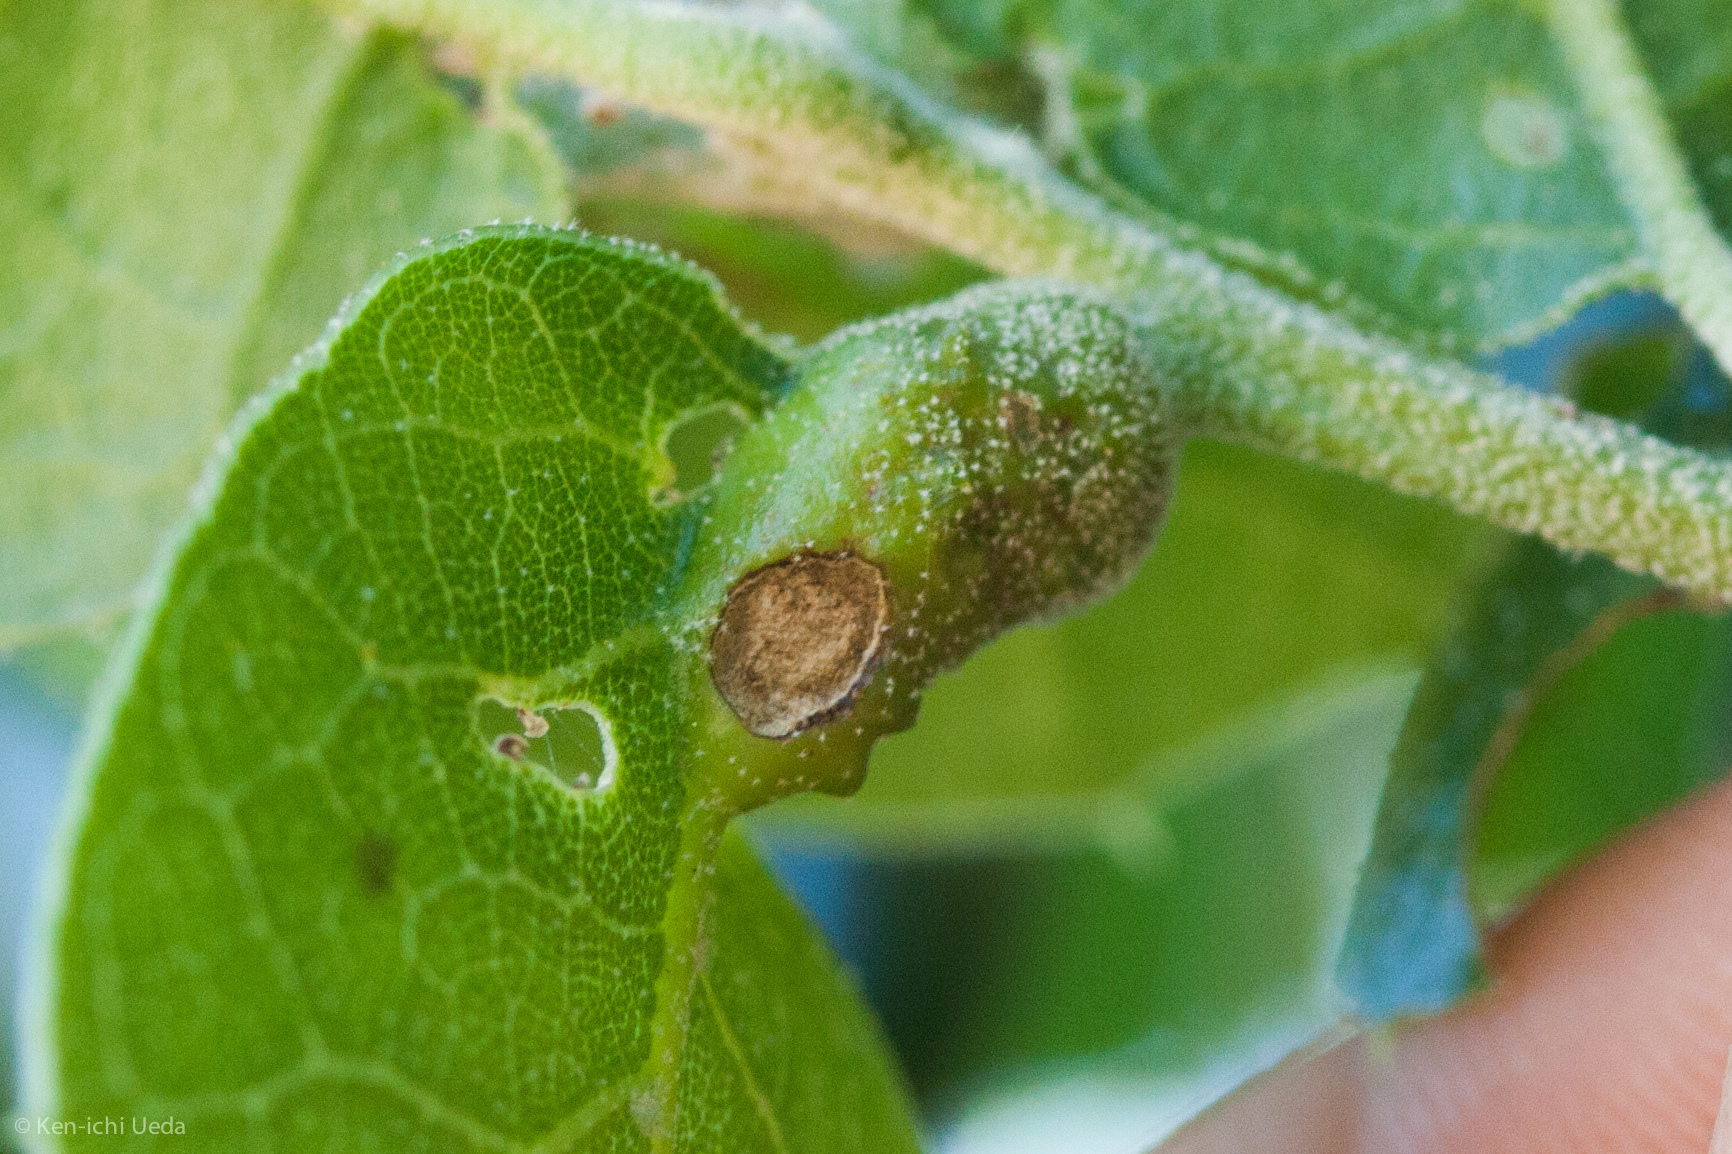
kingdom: Animalia
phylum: Arthropoda
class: Insecta
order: Hymenoptera
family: Cynipidae
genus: Melikaiella
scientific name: Melikaiella
